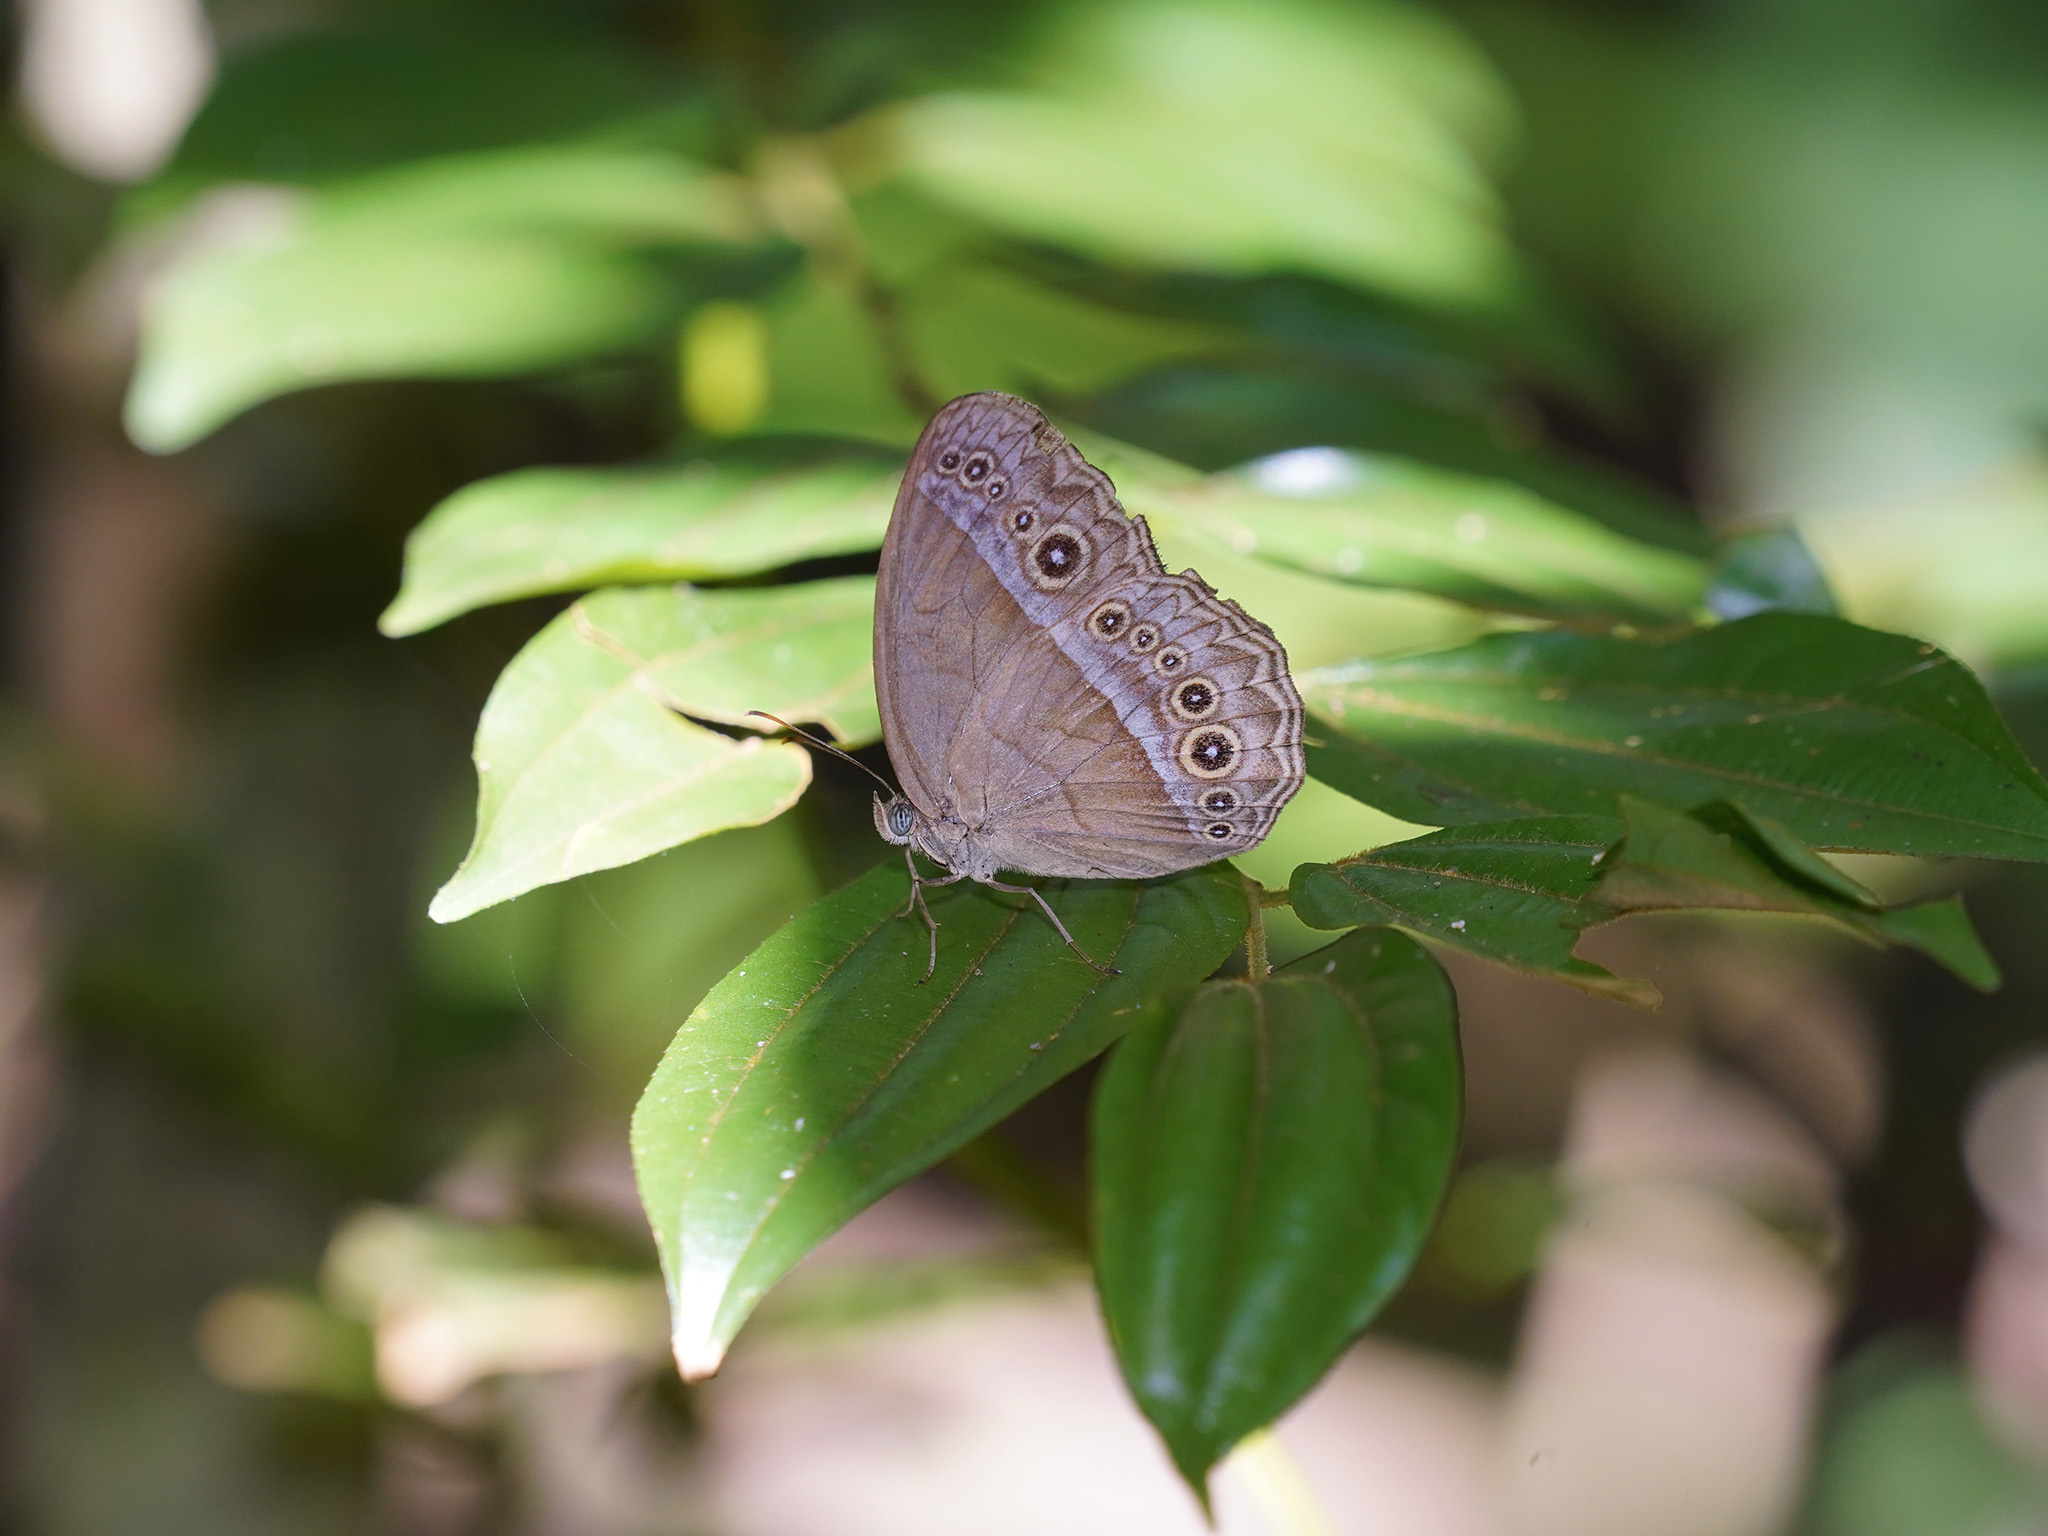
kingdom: Animalia
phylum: Arthropoda
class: Insecta
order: Lepidoptera
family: Nymphalidae
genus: Mycalesis
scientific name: Mycalesis orseis
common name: Purple bushbrown
